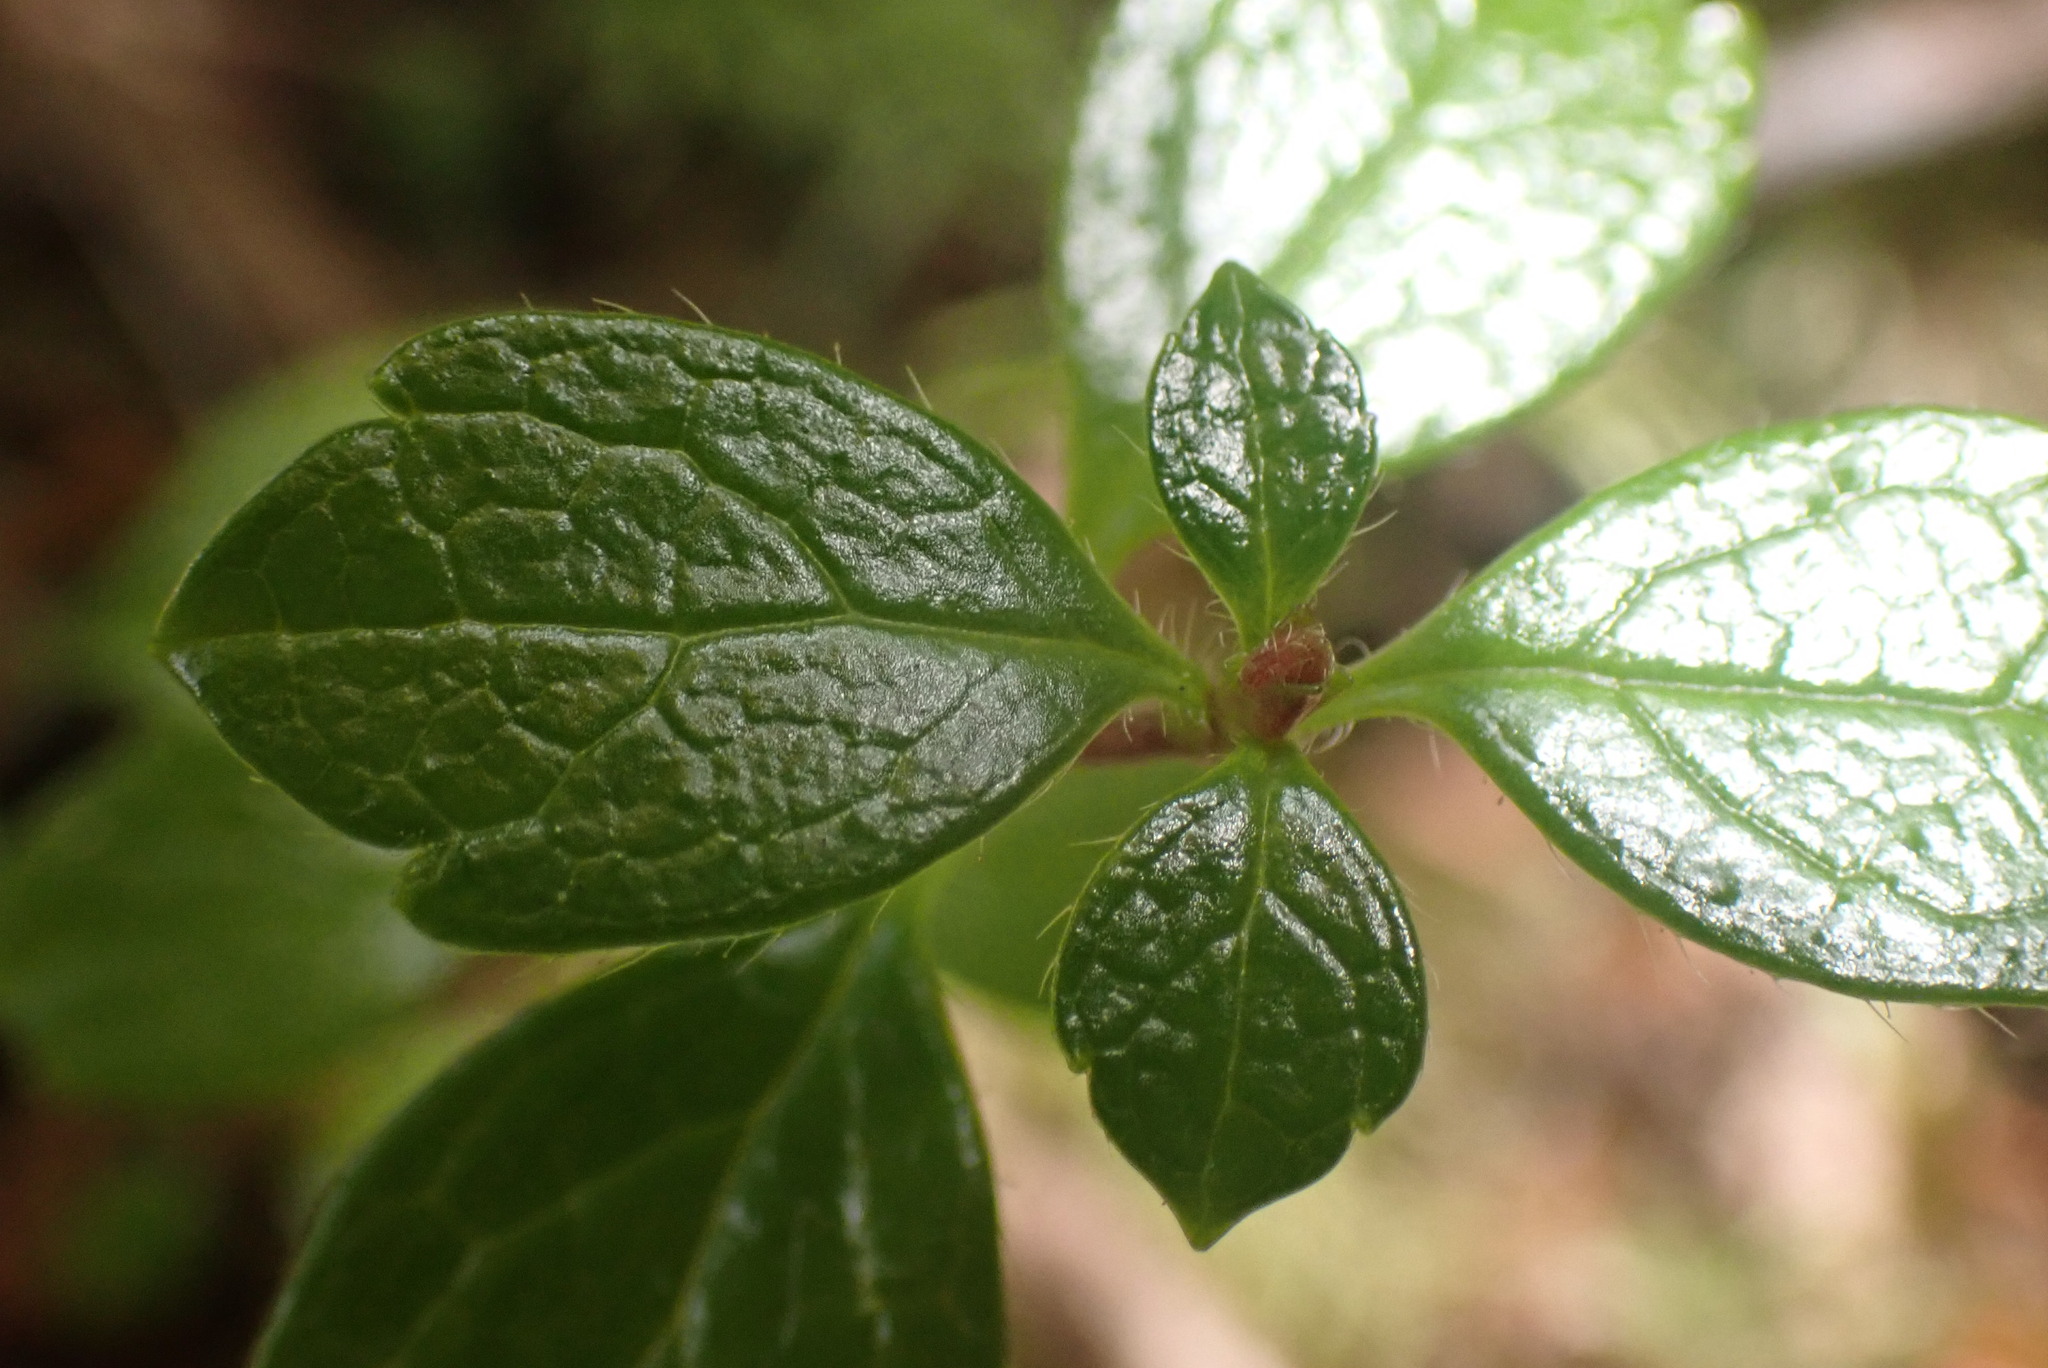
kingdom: Plantae
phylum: Tracheophyta
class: Magnoliopsida
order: Dipsacales
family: Caprifoliaceae
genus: Linnaea
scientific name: Linnaea borealis
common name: Twinflower
